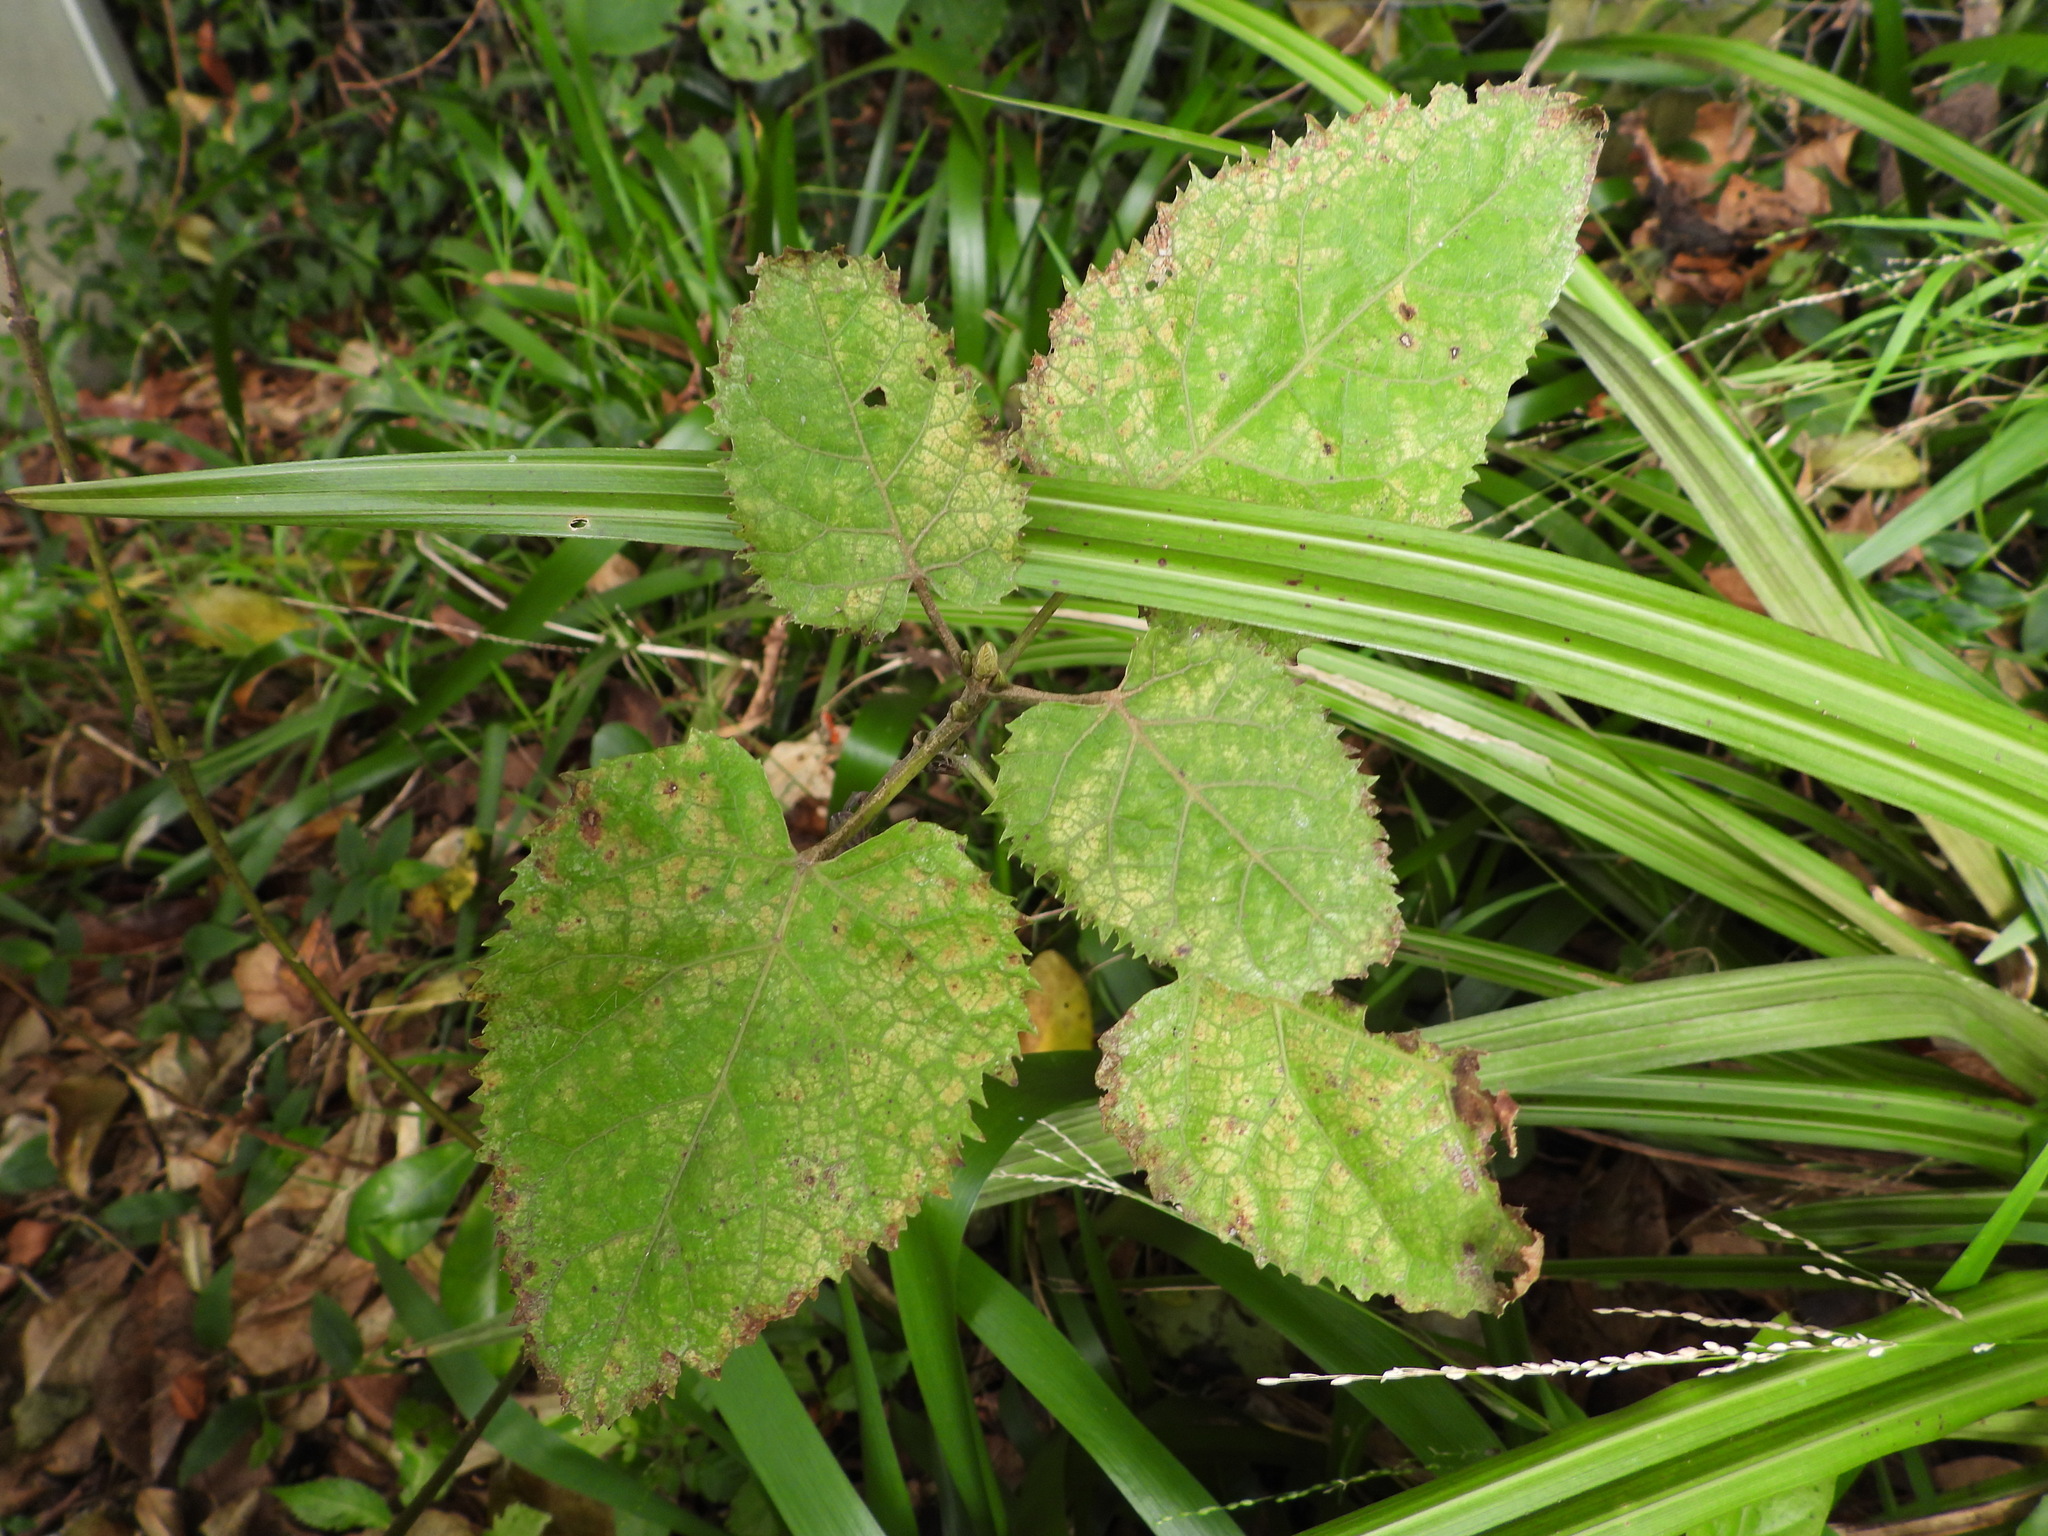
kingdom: Plantae
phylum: Tracheophyta
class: Magnoliopsida
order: Oxalidales
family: Elaeocarpaceae
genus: Aristotelia
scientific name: Aristotelia serrata
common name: New zealand wineberry
